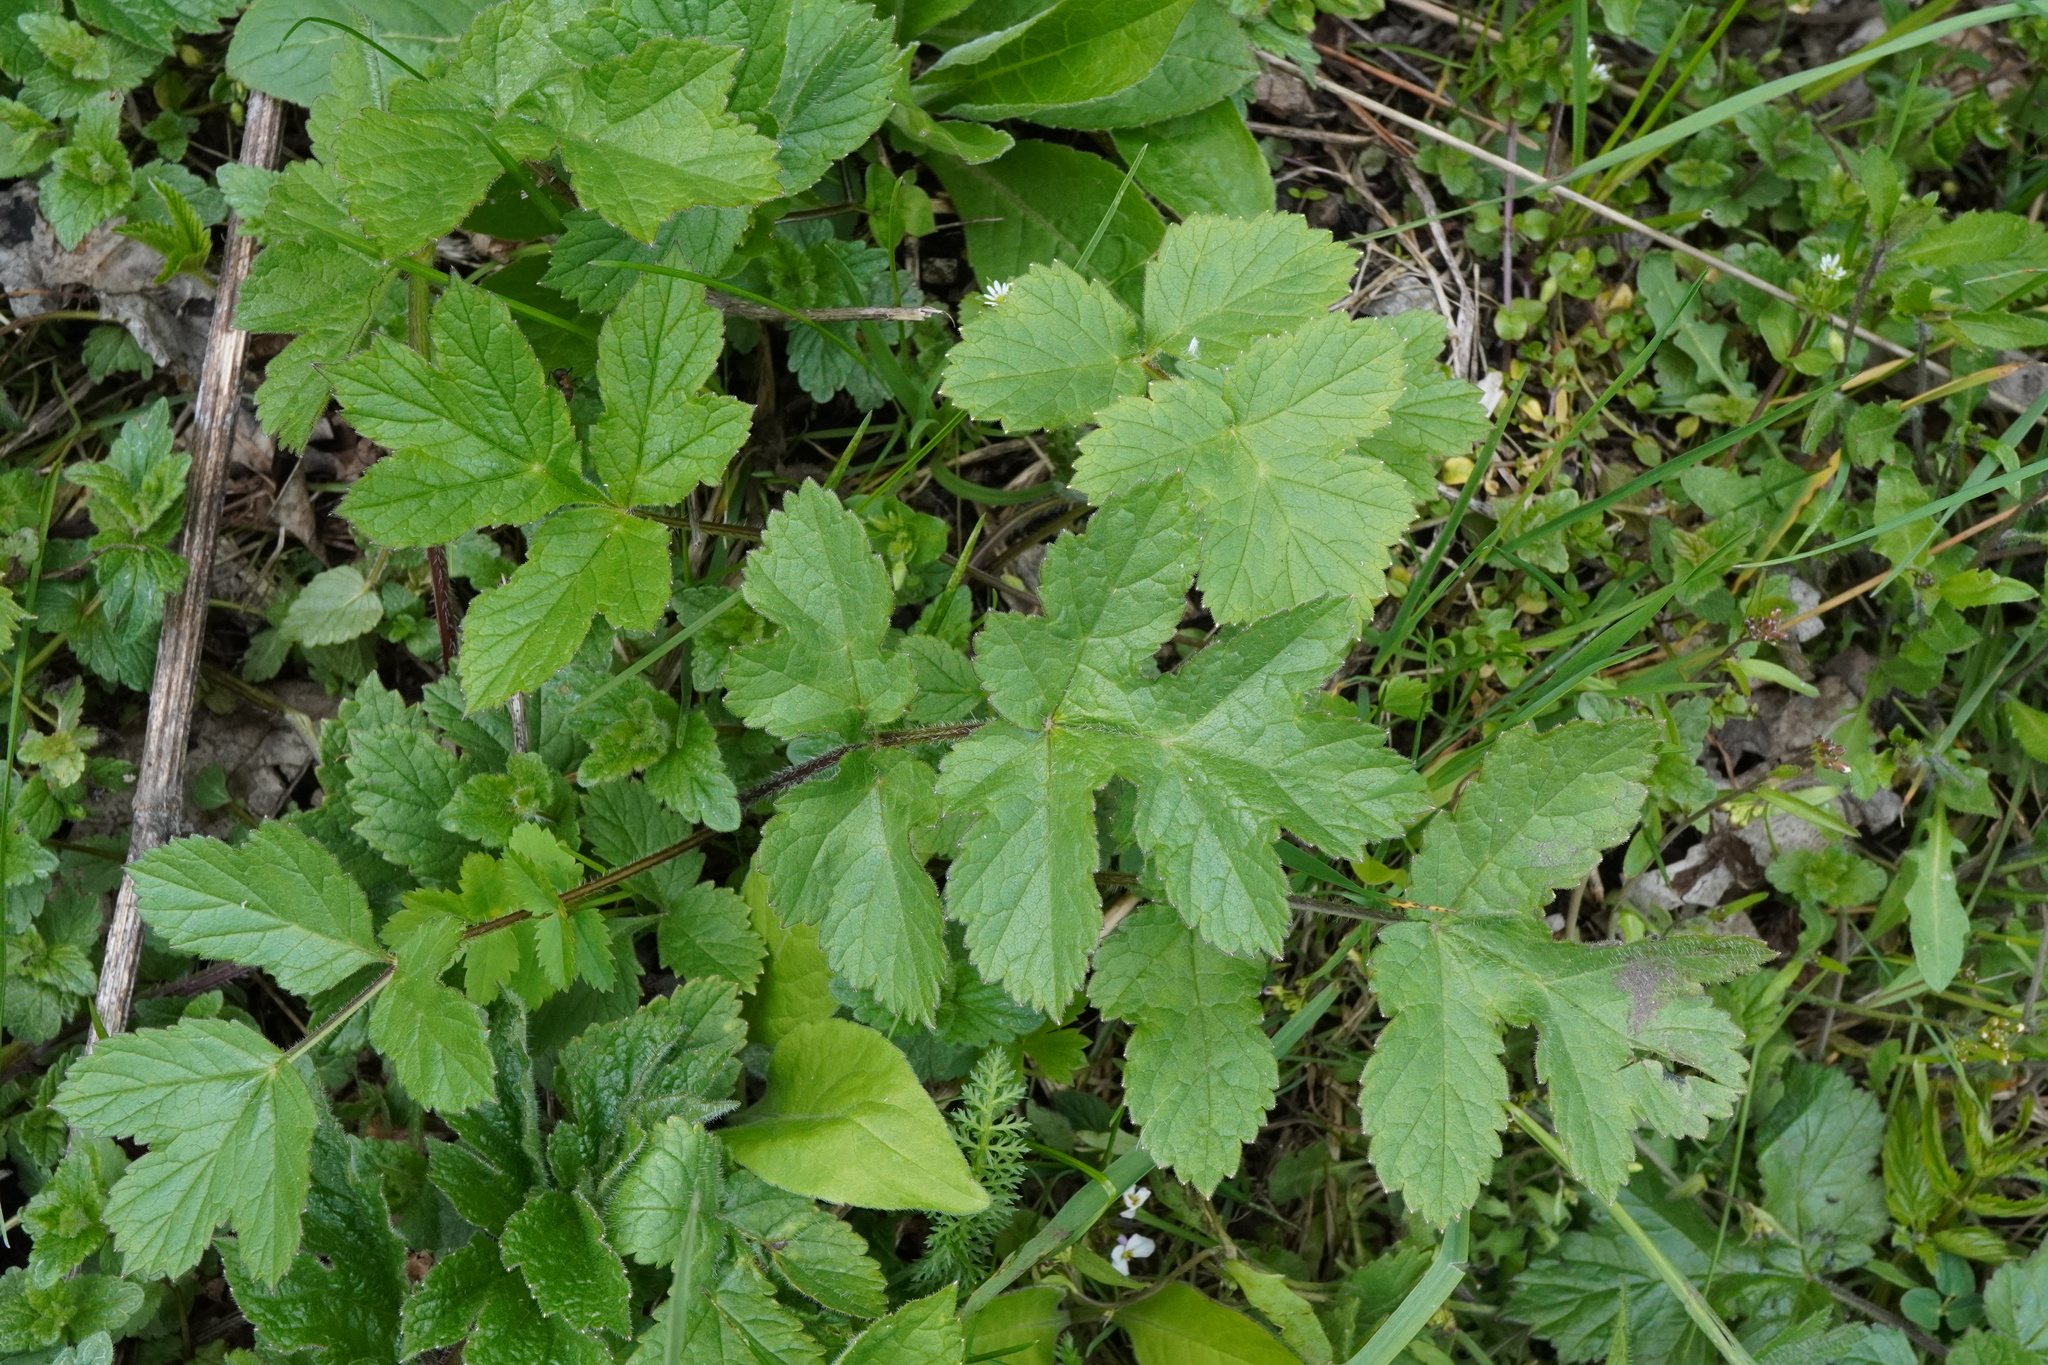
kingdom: Plantae
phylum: Tracheophyta
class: Magnoliopsida
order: Apiales
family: Apiaceae
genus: Heracleum
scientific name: Heracleum sphondylium
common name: Hogweed
